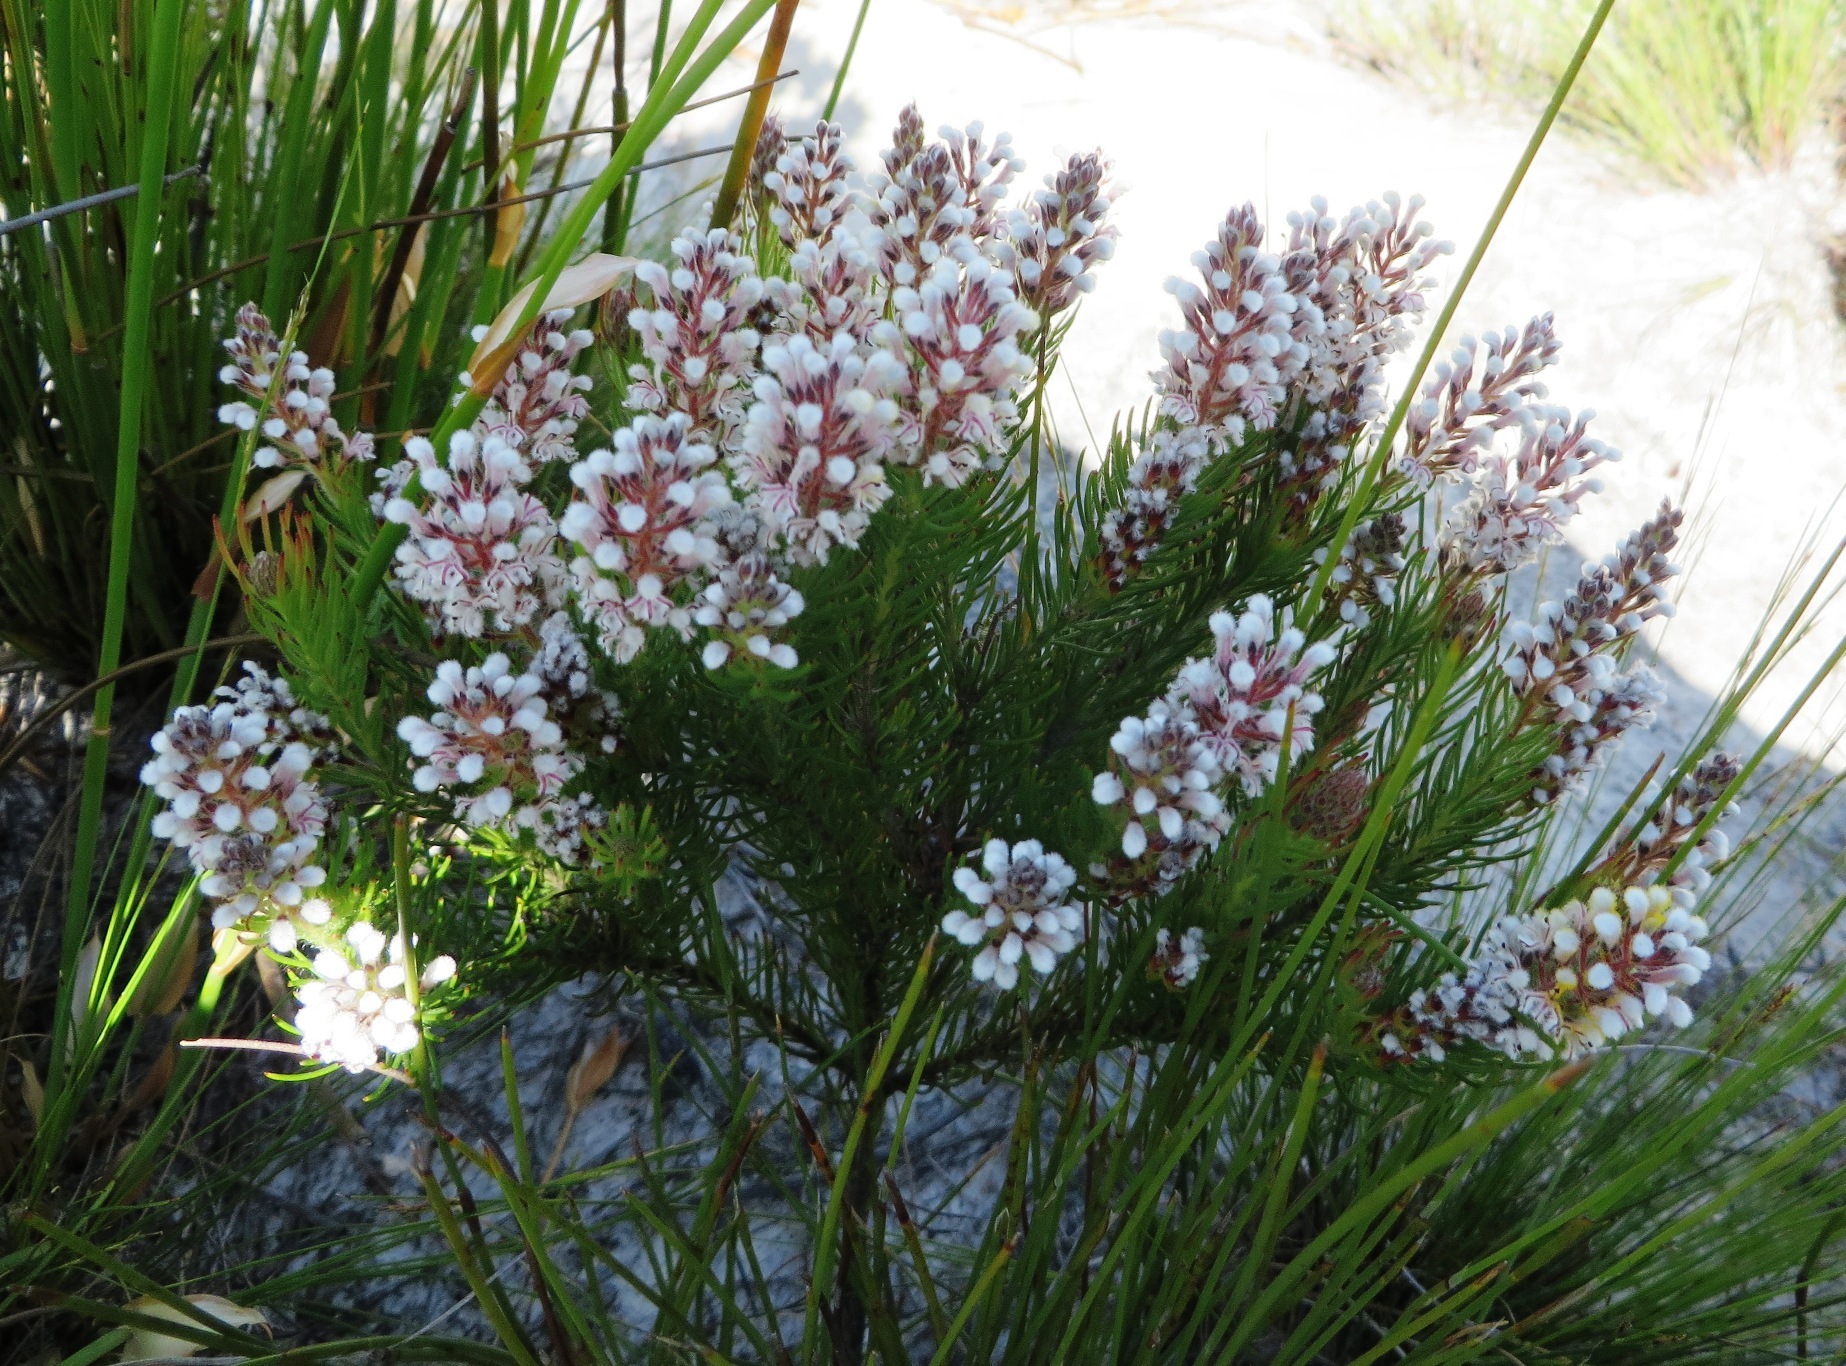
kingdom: Plantae
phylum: Tracheophyta
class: Magnoliopsida
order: Proteales
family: Proteaceae
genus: Spatalla
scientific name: Spatalla mollis
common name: Woolly spoon
